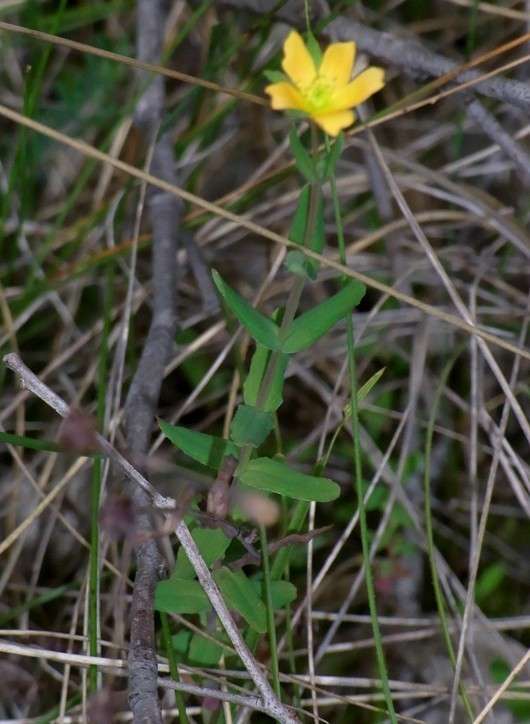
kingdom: Plantae
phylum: Tracheophyta
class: Magnoliopsida
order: Malpighiales
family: Hypericaceae
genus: Hypericum
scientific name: Hypericum gramineum
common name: Grassy st. johnswort
